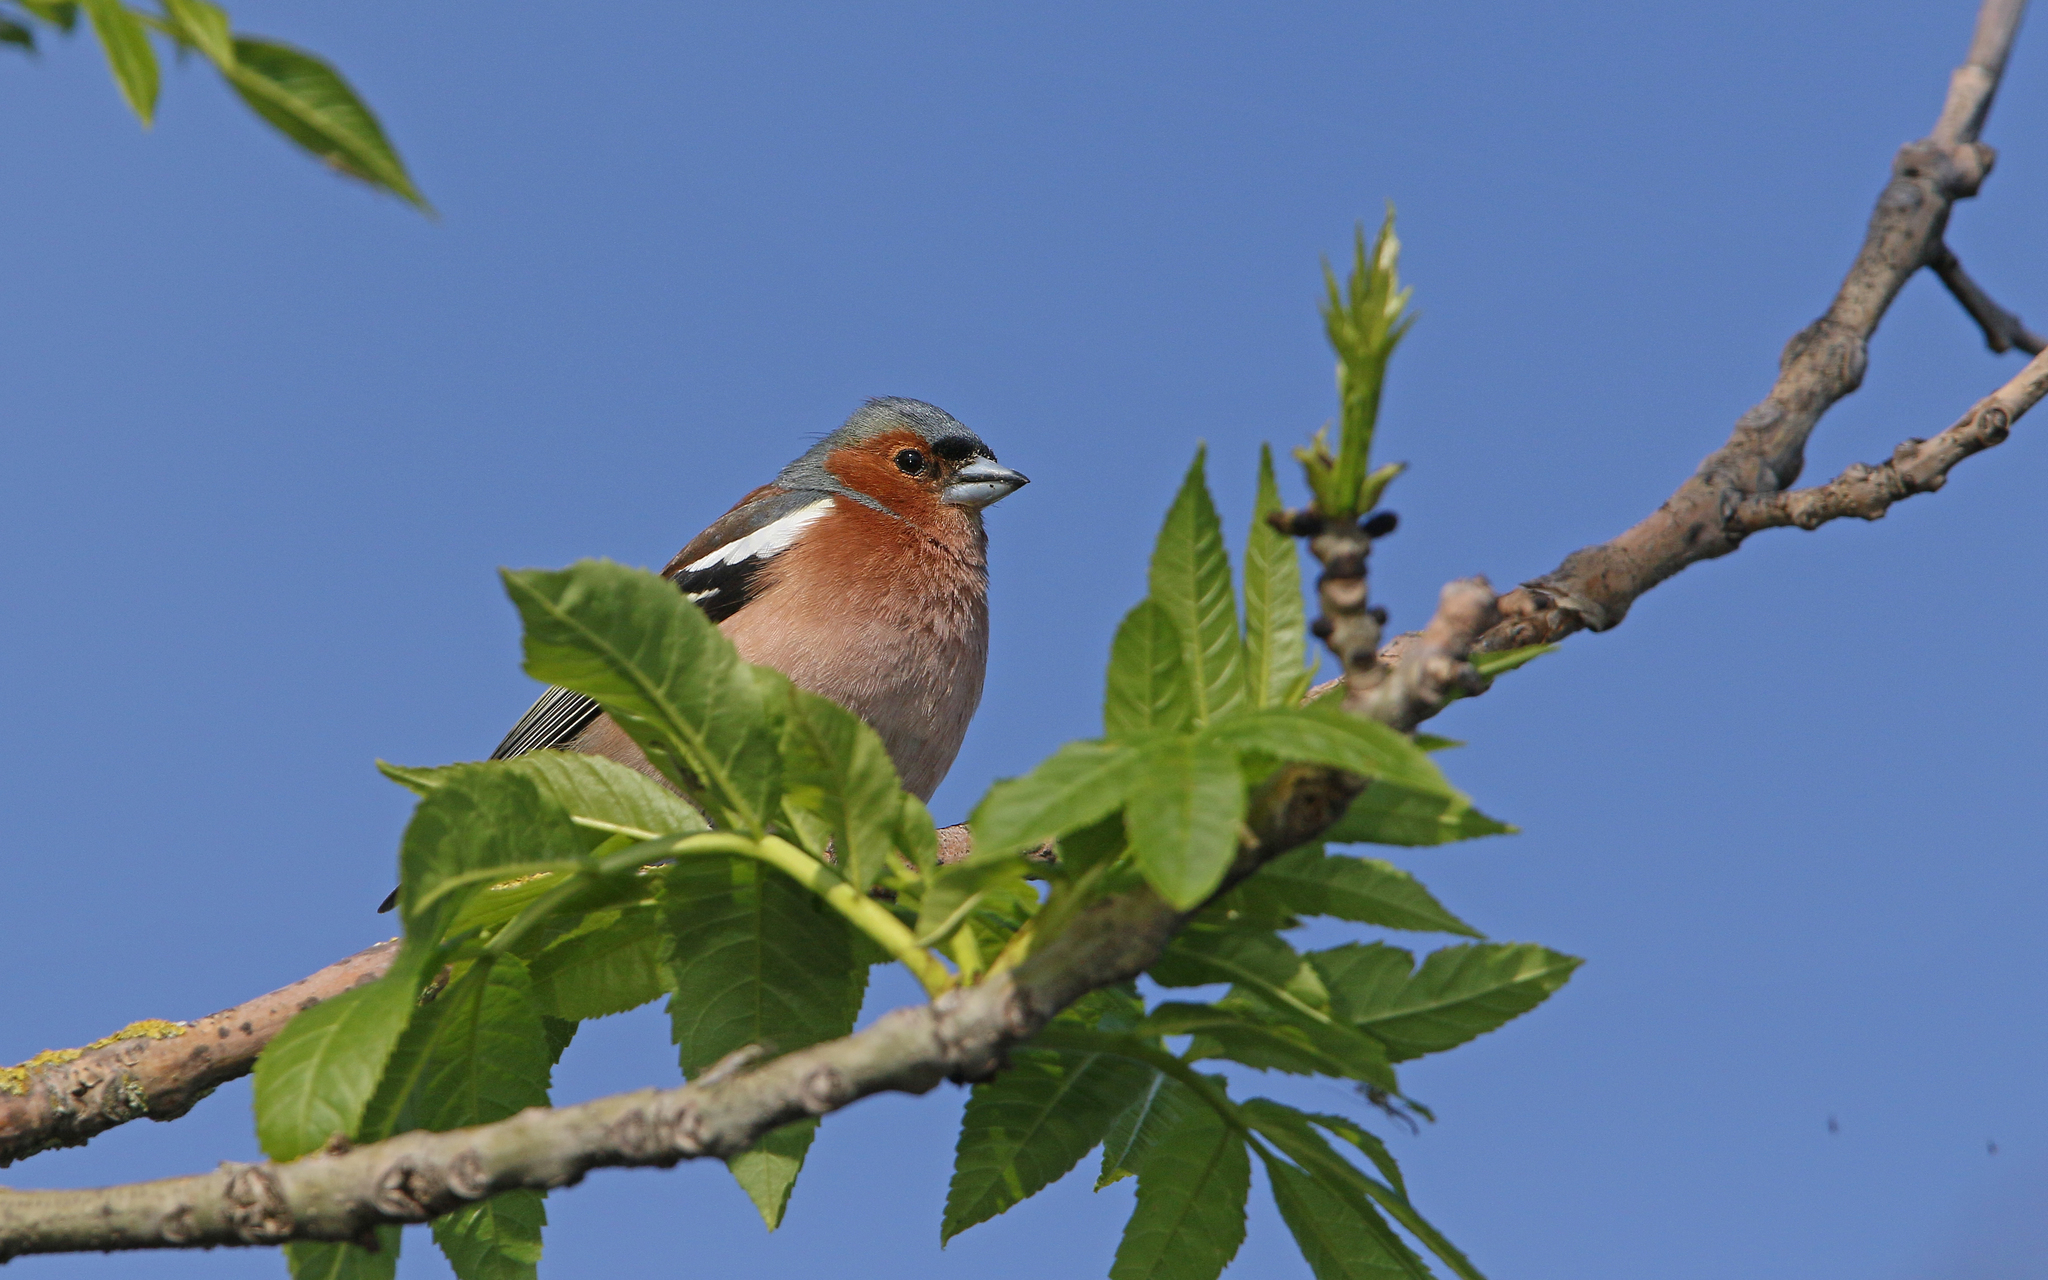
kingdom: Animalia
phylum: Chordata
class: Aves
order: Passeriformes
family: Fringillidae
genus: Fringilla
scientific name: Fringilla coelebs
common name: Common chaffinch
